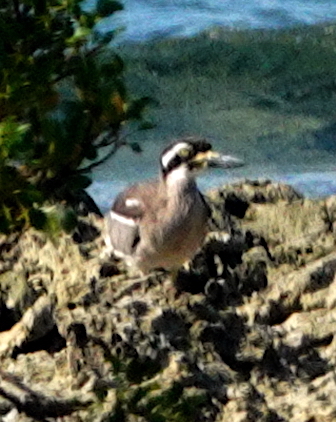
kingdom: Animalia
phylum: Chordata
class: Aves
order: Charadriiformes
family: Burhinidae
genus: Esacus
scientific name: Esacus magnirostris
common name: Beach stone-curlew
